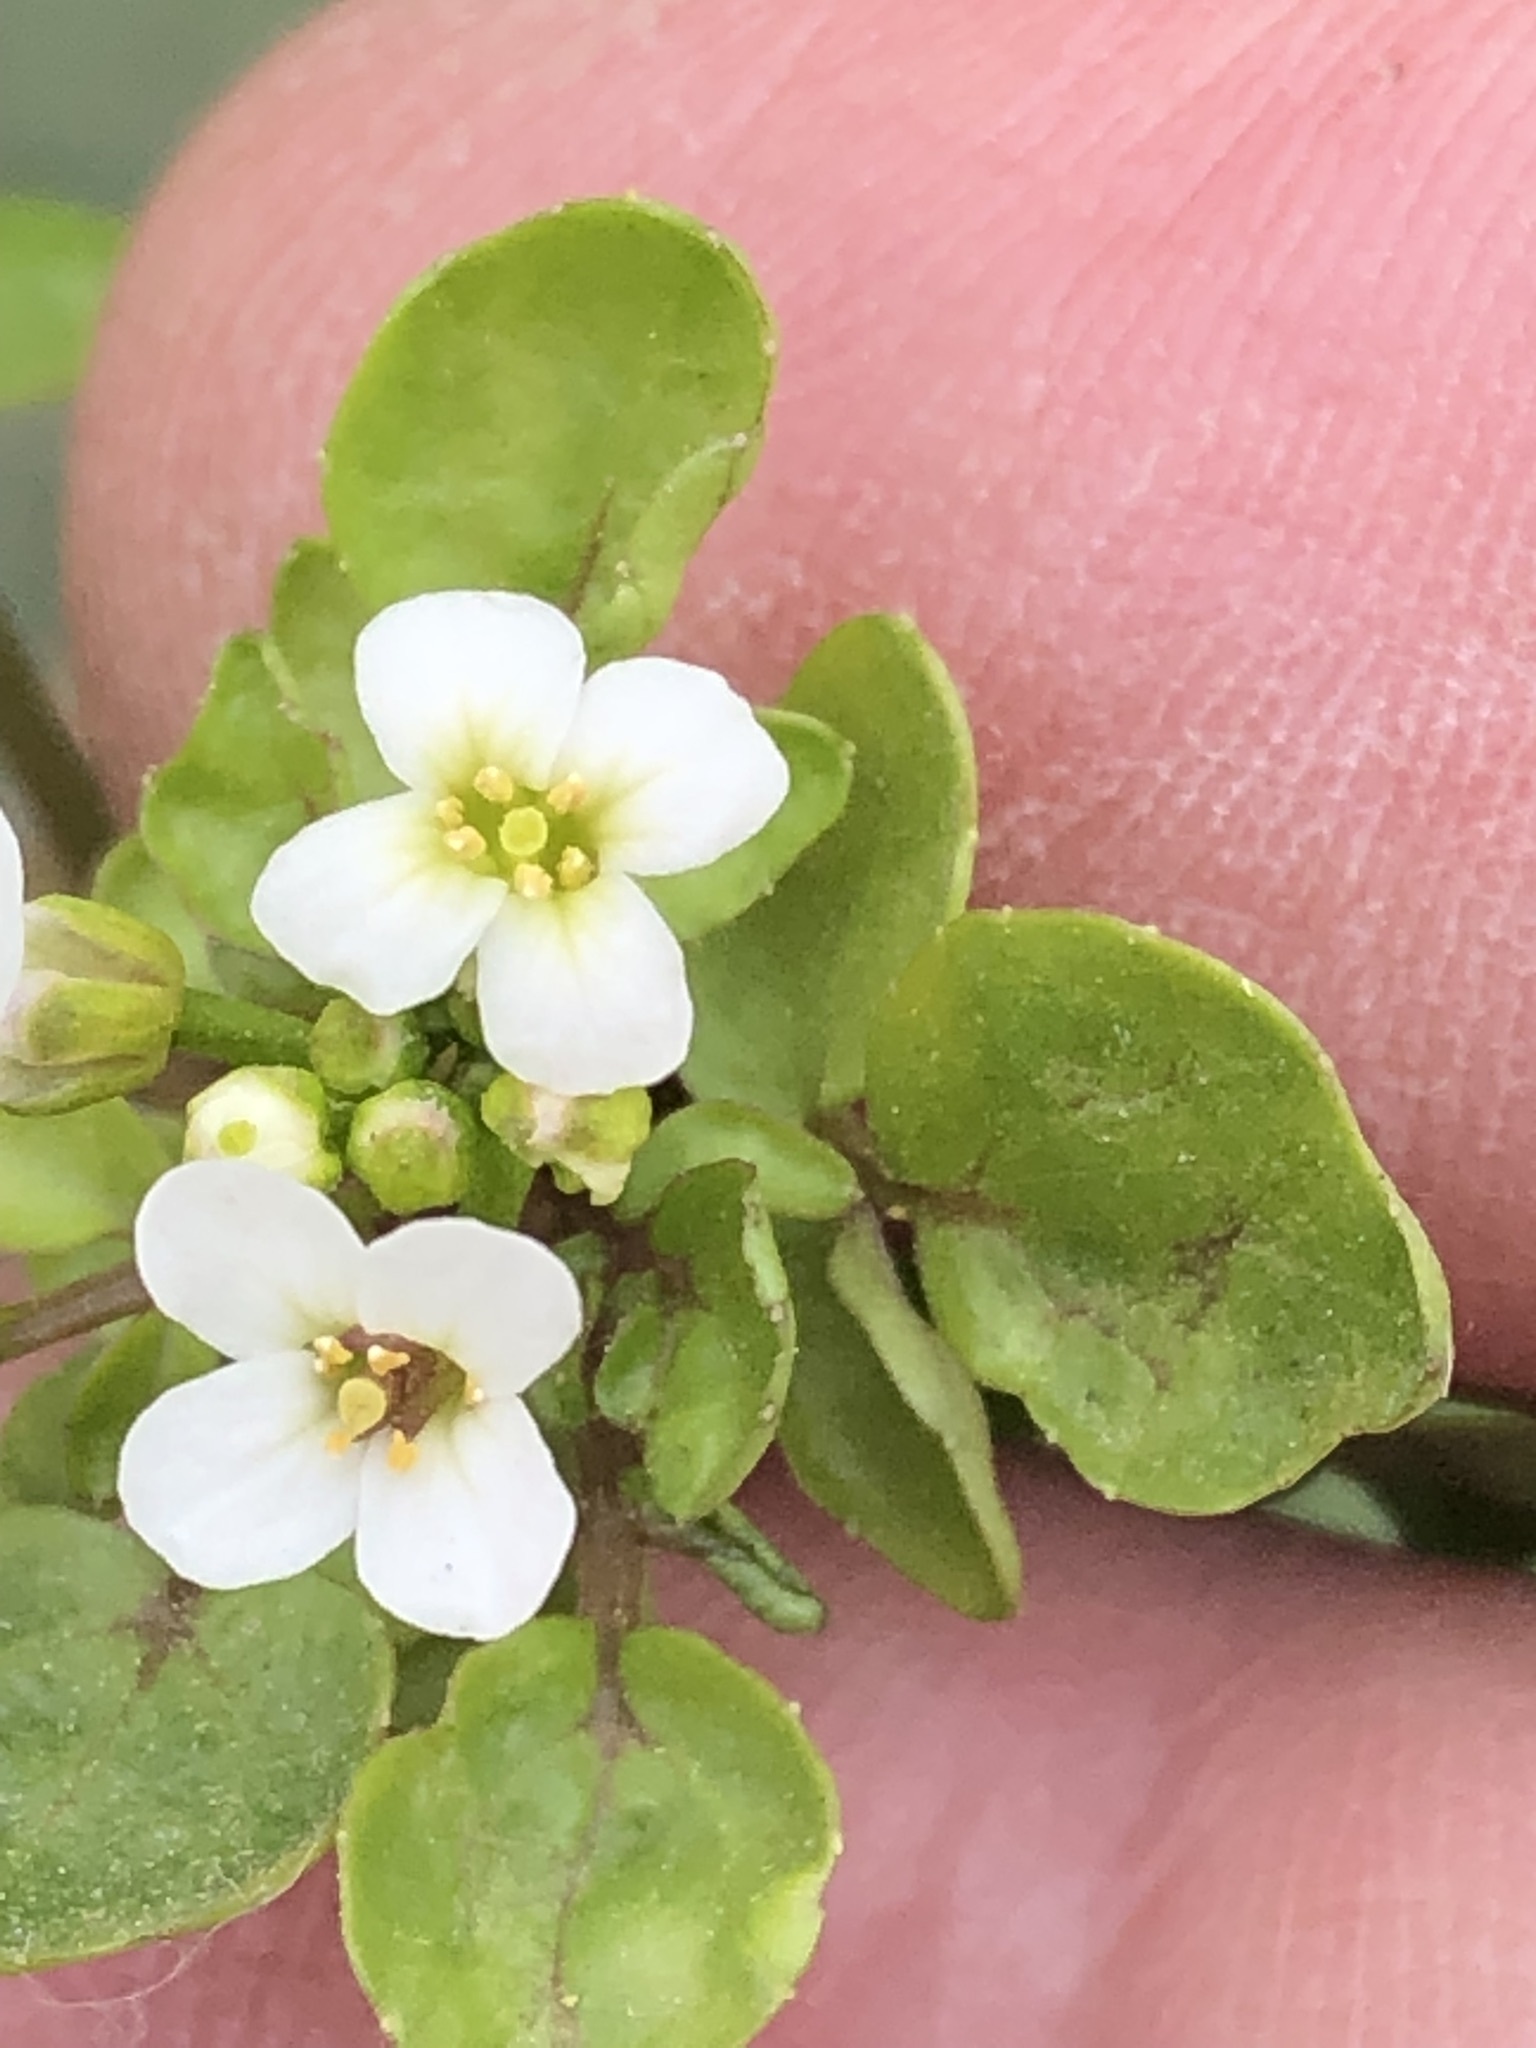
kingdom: Plantae
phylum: Tracheophyta
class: Magnoliopsida
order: Brassicales
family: Brassicaceae
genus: Nasturtium
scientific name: Nasturtium officinale
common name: Watercress
